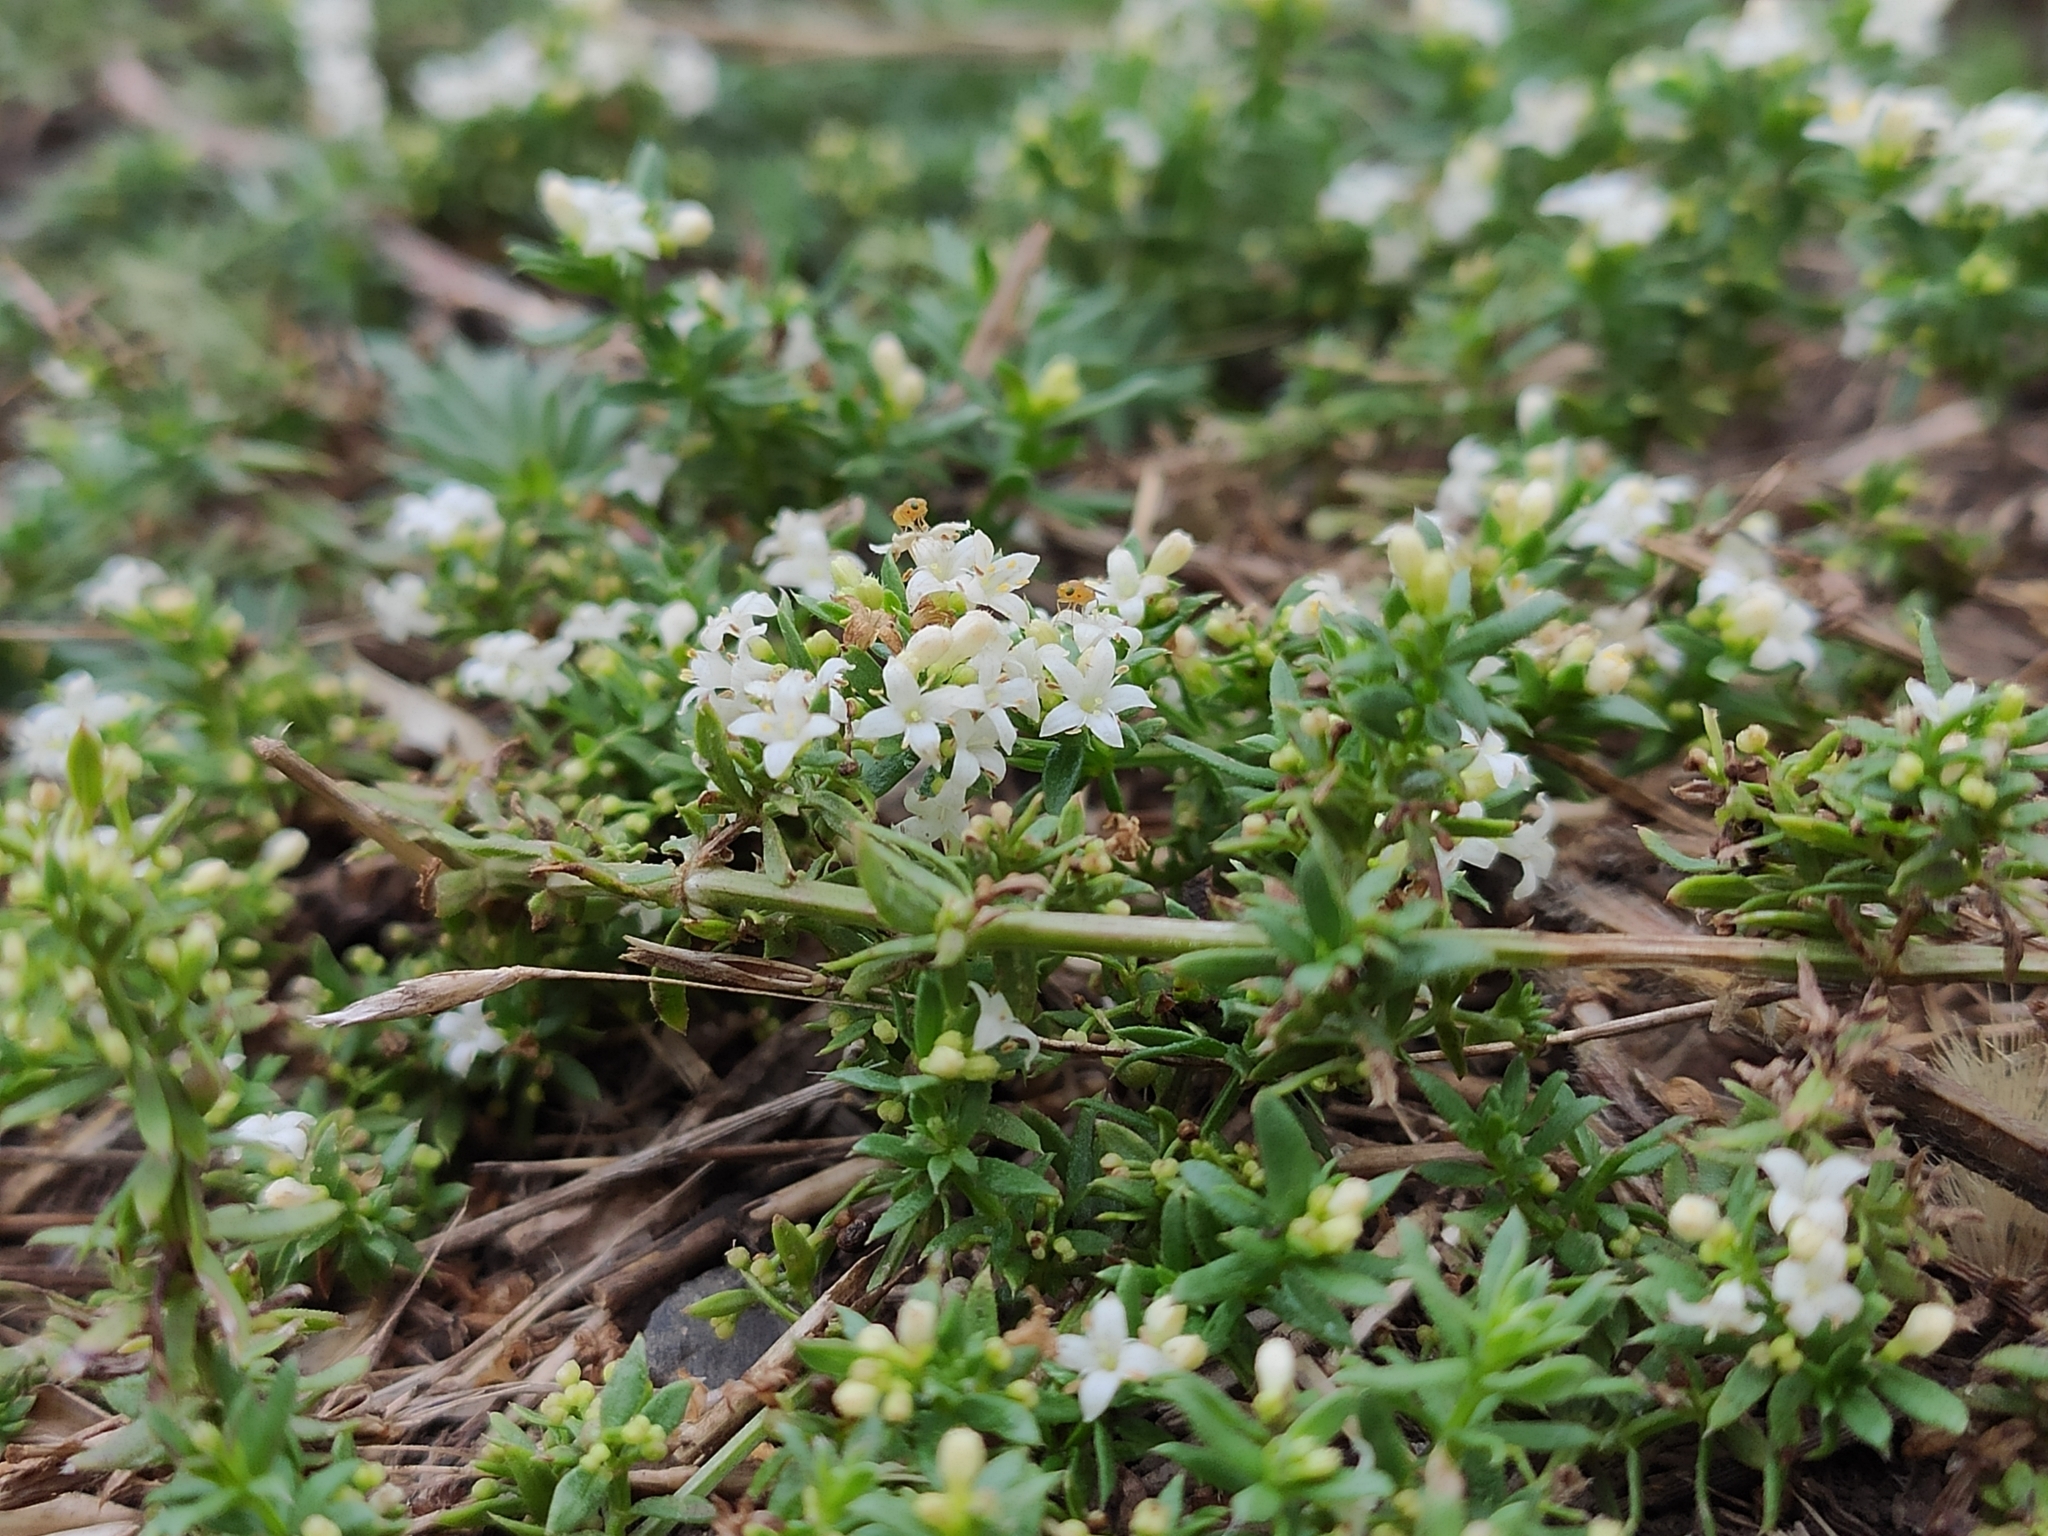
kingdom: Plantae
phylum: Tracheophyta
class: Magnoliopsida
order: Gentianales
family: Rubiaceae
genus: Galium
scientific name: Galium humifusum
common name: Spreading bedstraw
